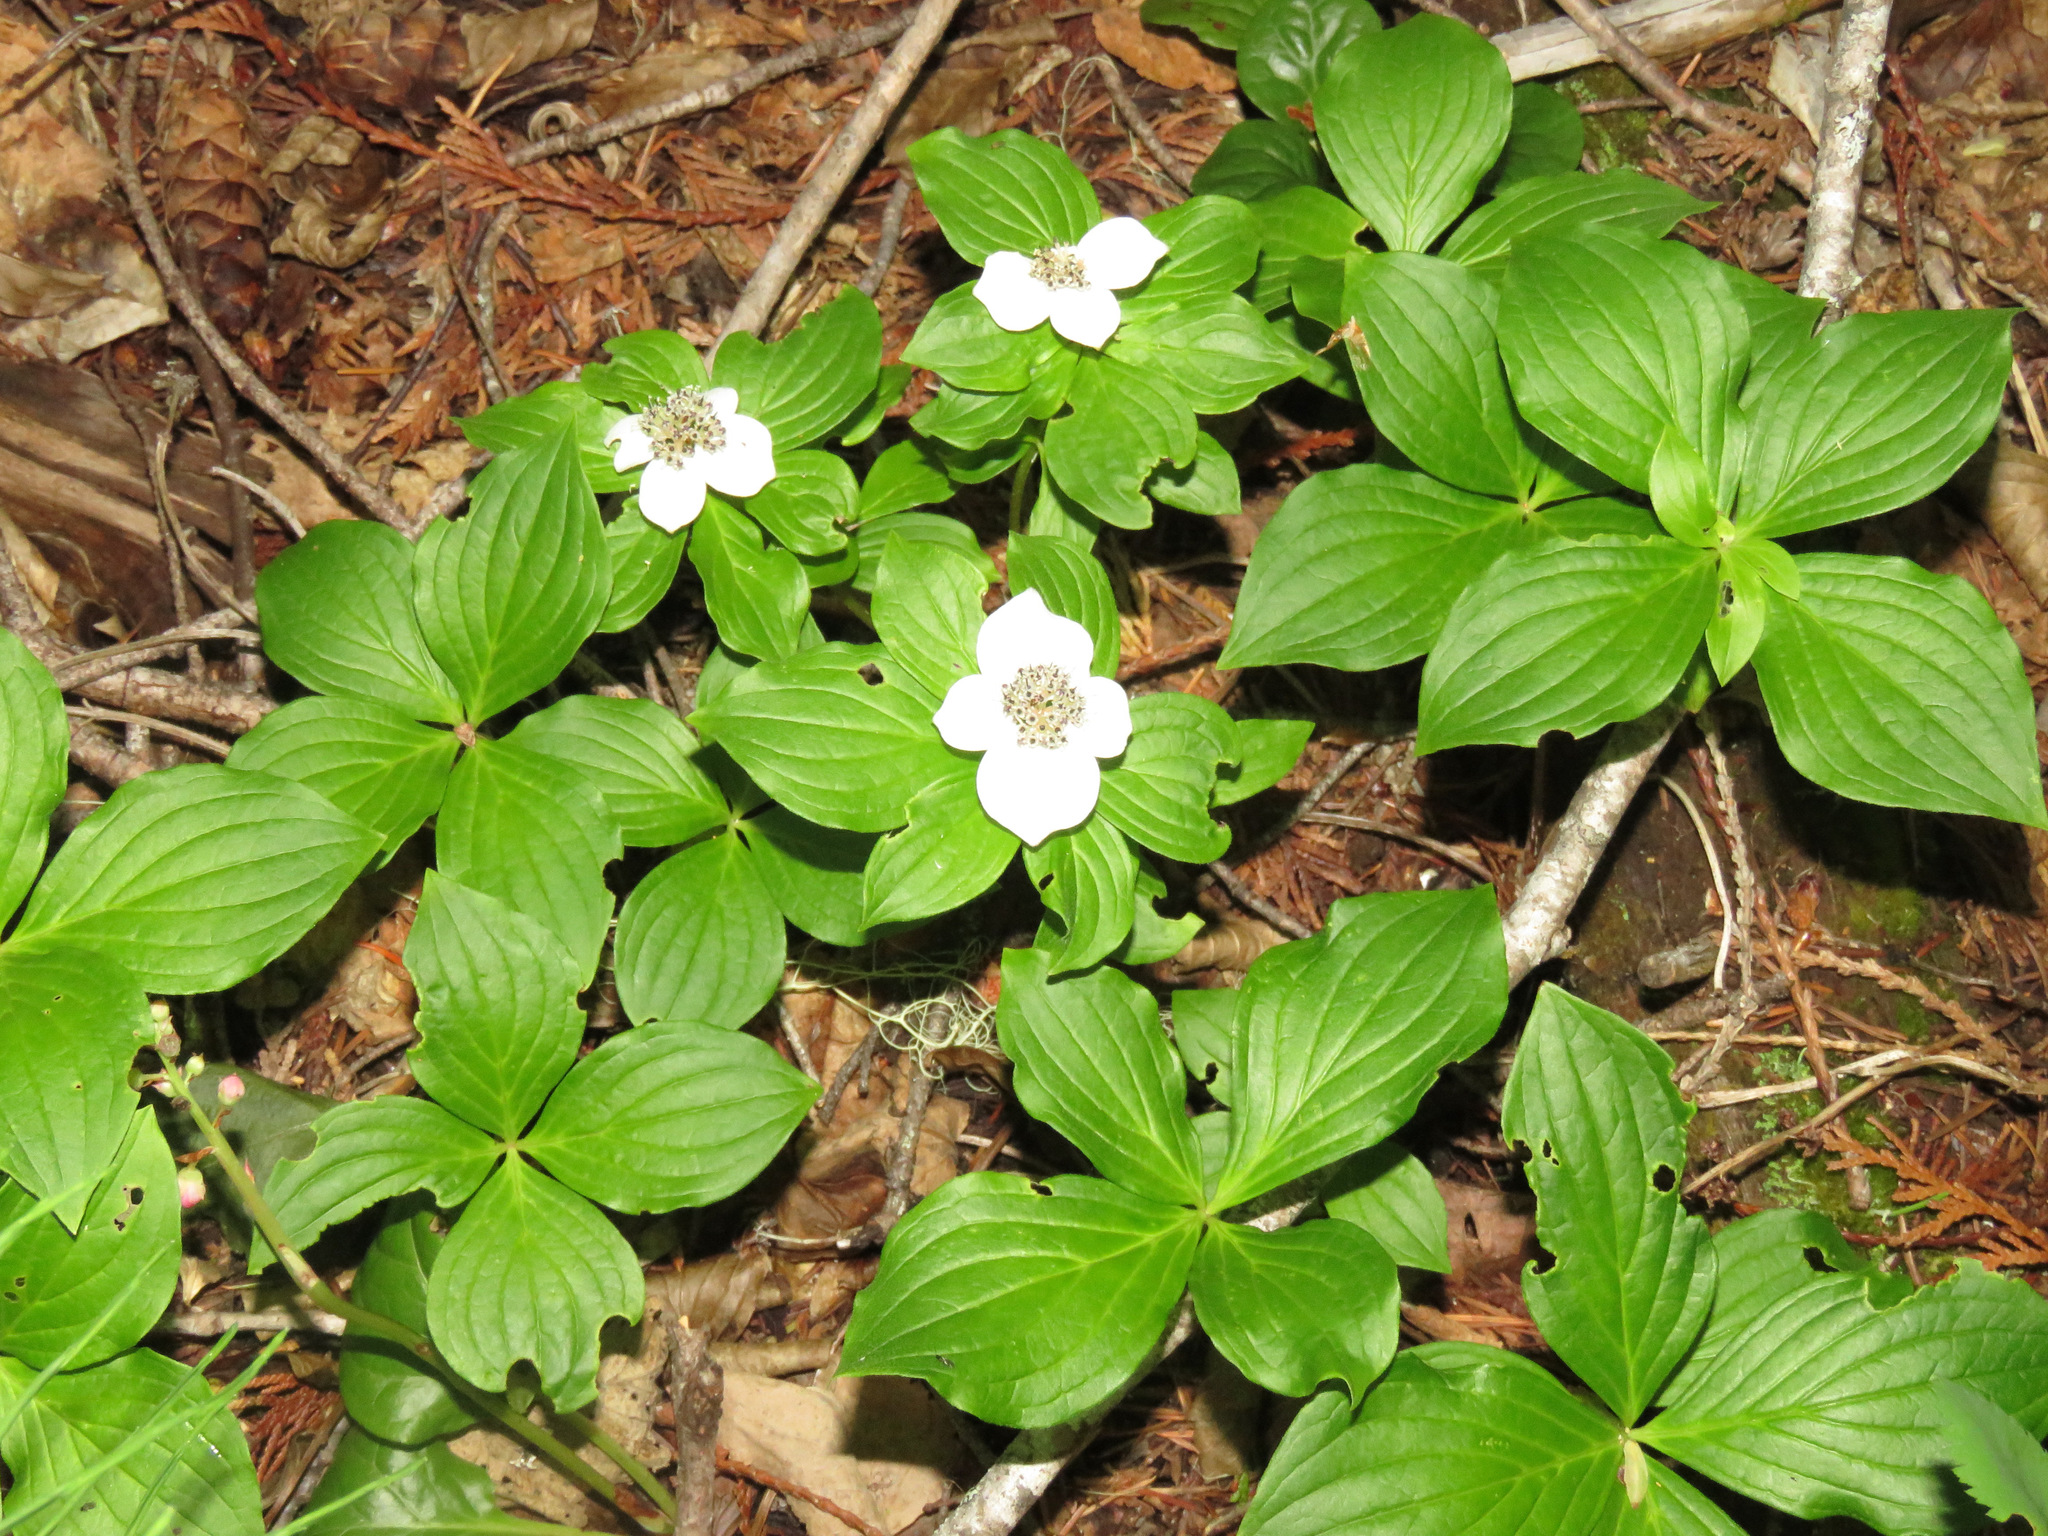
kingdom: Plantae
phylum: Tracheophyta
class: Magnoliopsida
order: Cornales
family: Cornaceae
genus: Cornus
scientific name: Cornus unalaschkensis
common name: Alaska bunchberry
